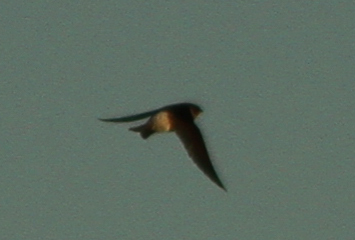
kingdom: Animalia
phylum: Chordata
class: Aves
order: Passeriformes
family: Hirundinidae
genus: Petrochelidon
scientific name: Petrochelidon nigricans
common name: Tree martin
